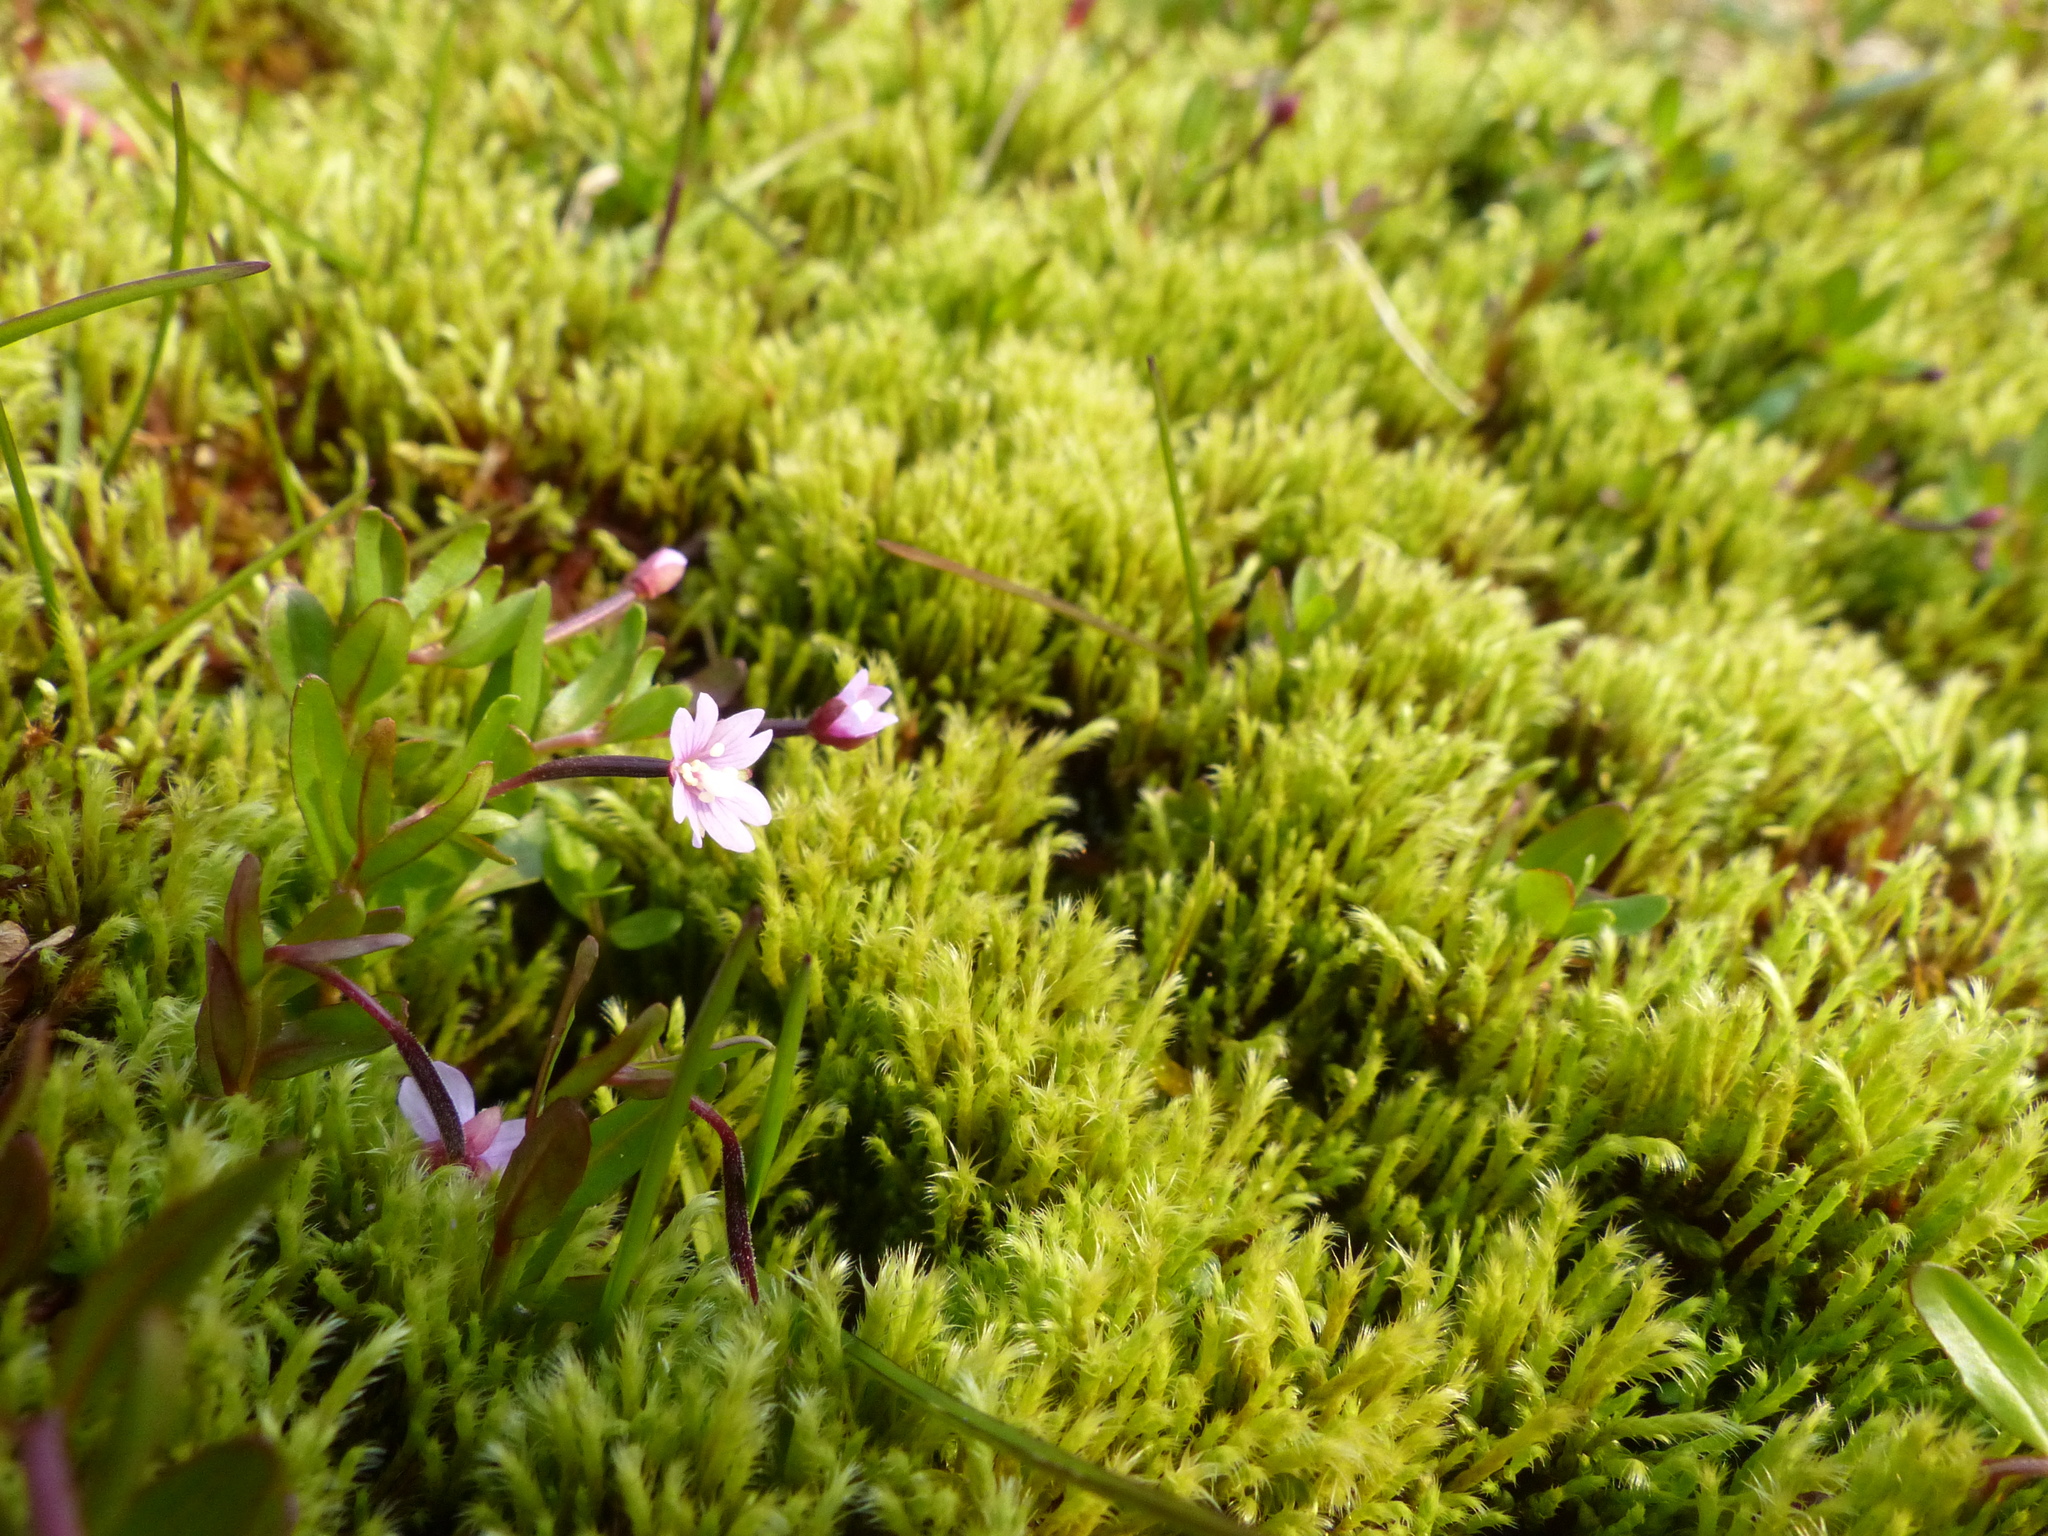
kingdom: Plantae
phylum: Tracheophyta
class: Magnoliopsida
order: Myrtales
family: Onagraceae
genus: Epilobium
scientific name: Epilobium anagallidifolium
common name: Alpine willowherb
